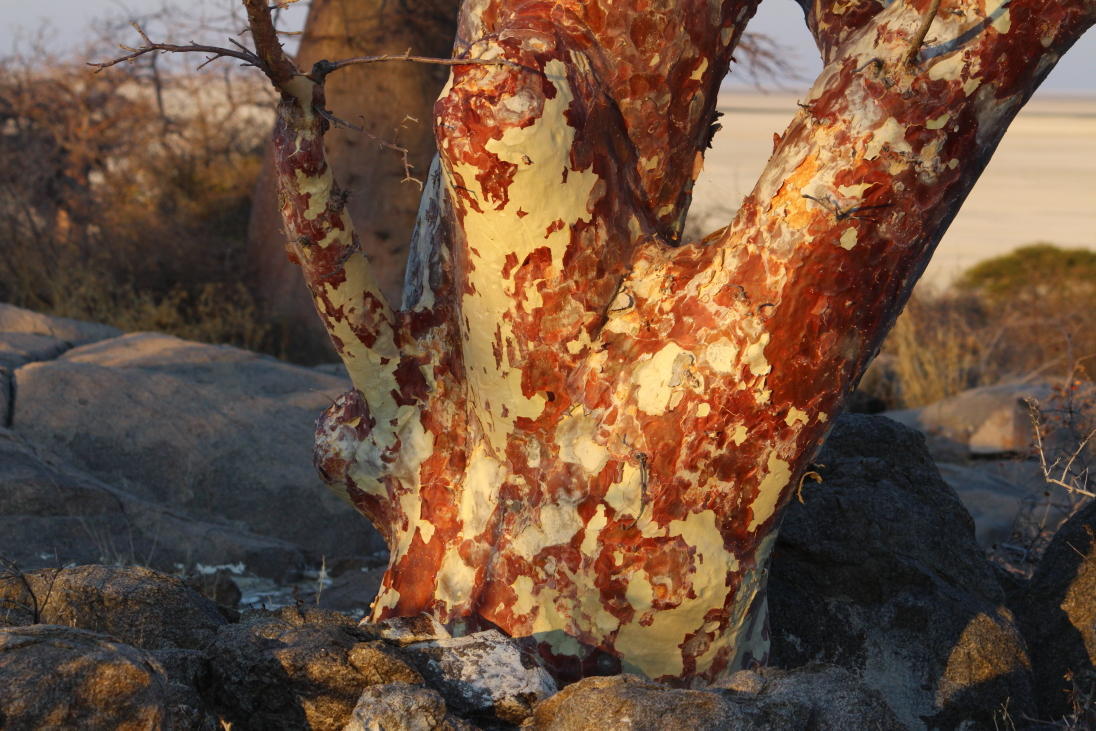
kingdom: Plantae
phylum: Tracheophyta
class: Magnoliopsida
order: Malvales
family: Malvaceae
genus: Sterculia
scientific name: Sterculia africana
